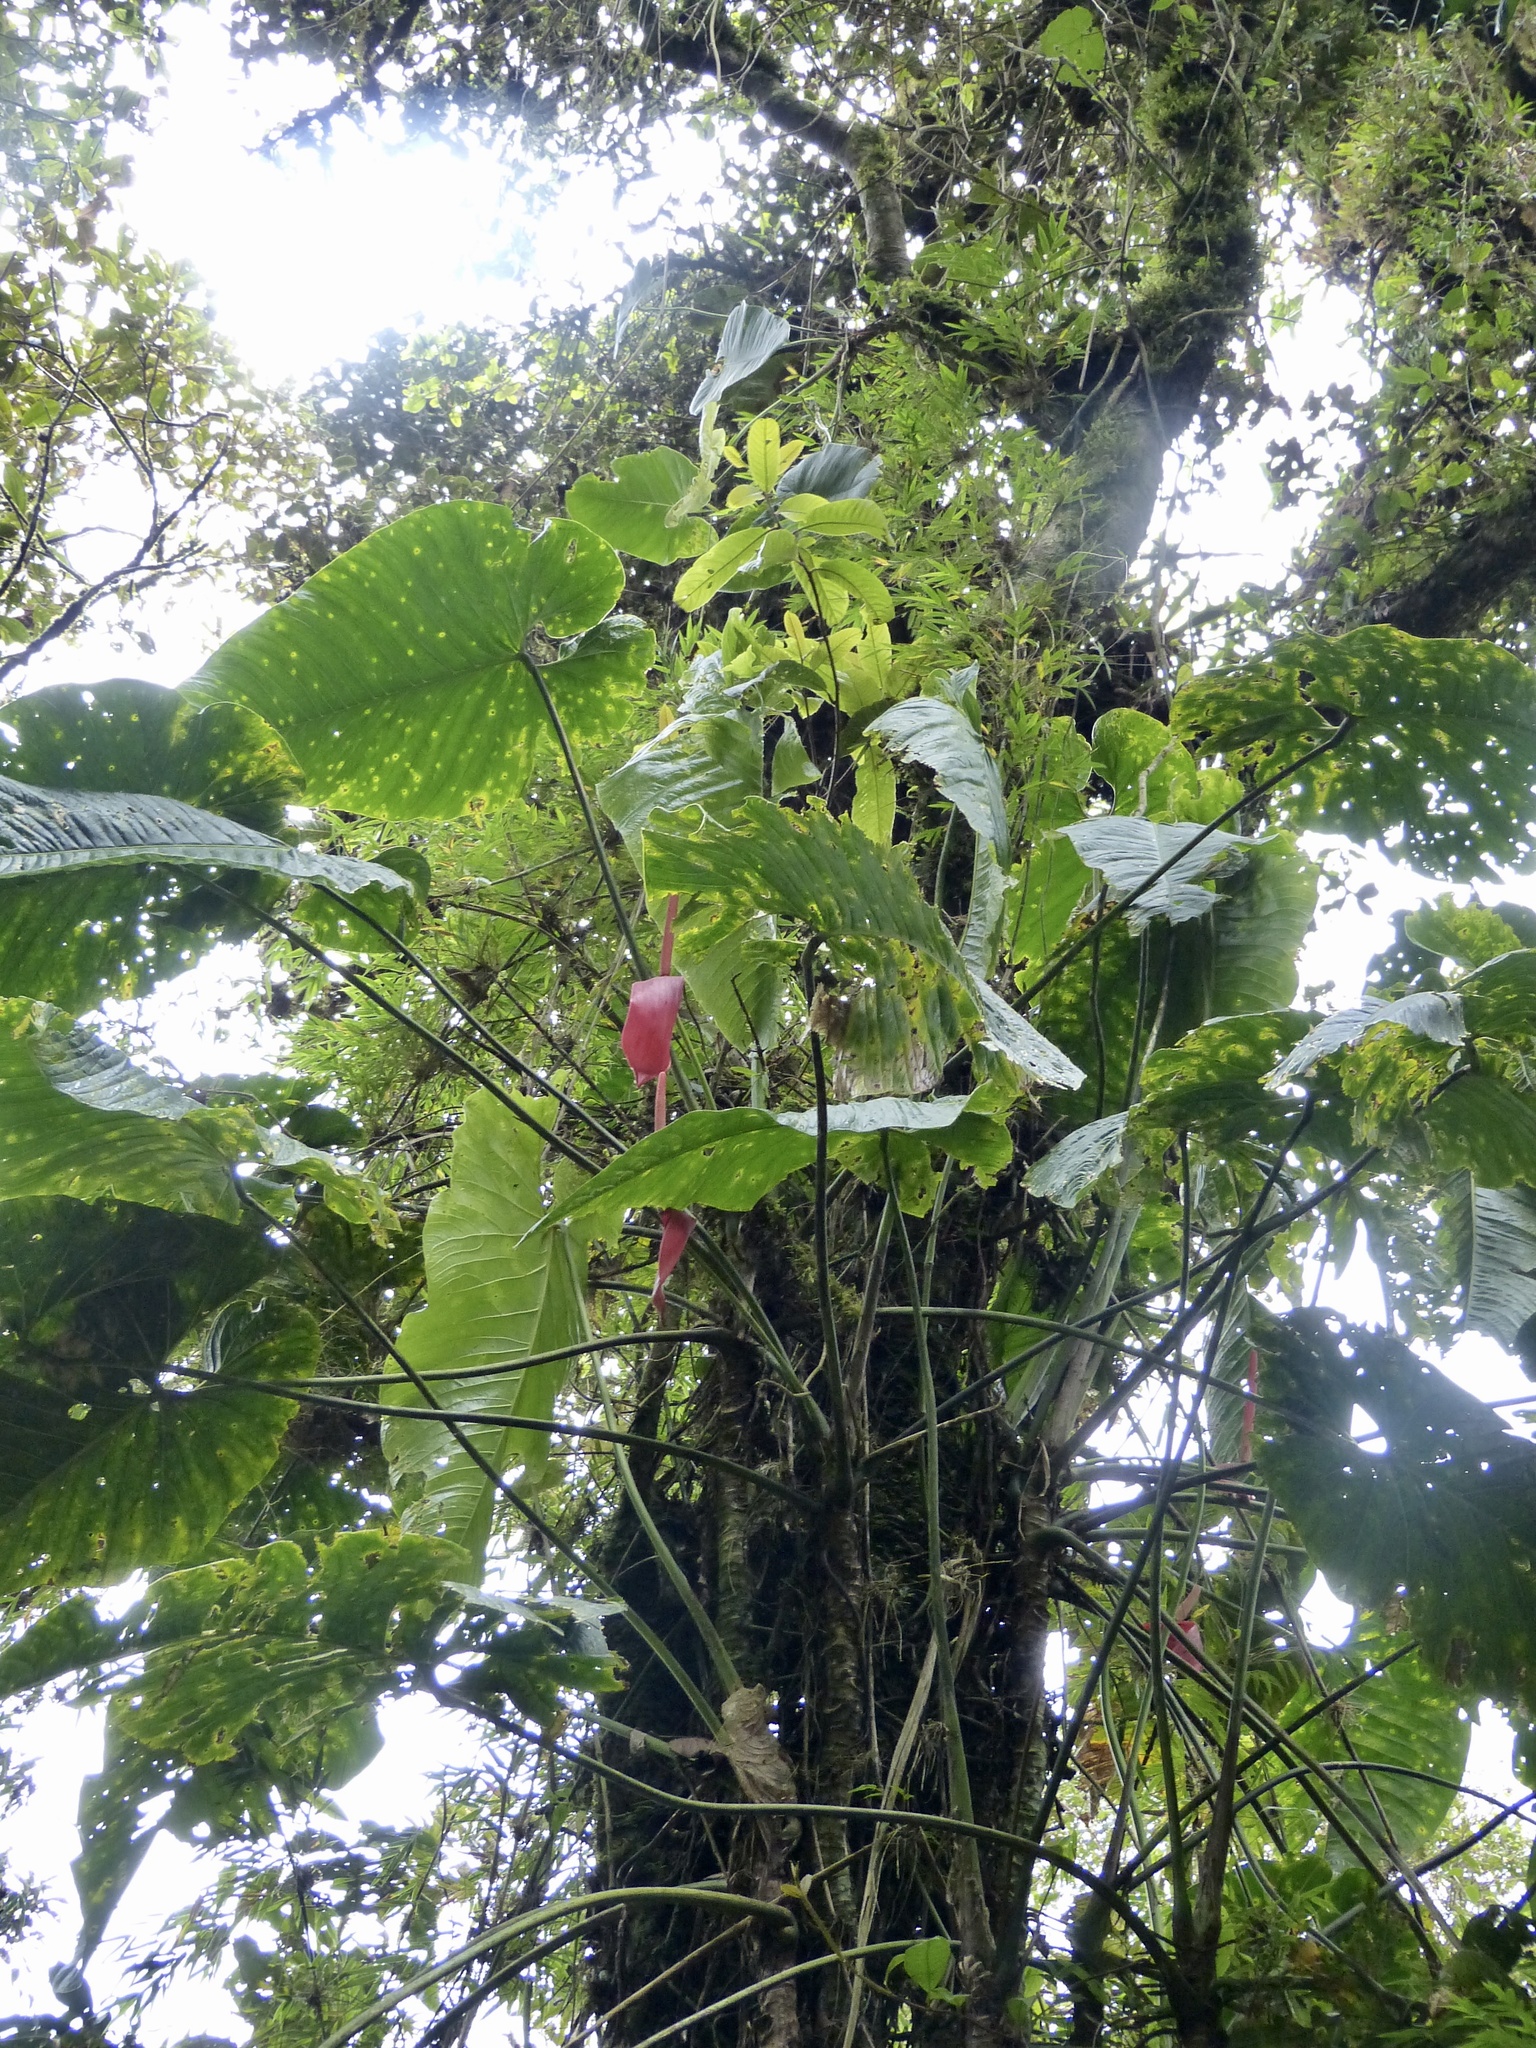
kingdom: Plantae
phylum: Tracheophyta
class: Liliopsida
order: Alismatales
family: Araceae
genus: Anthurium
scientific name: Anthurium bustamanteae
